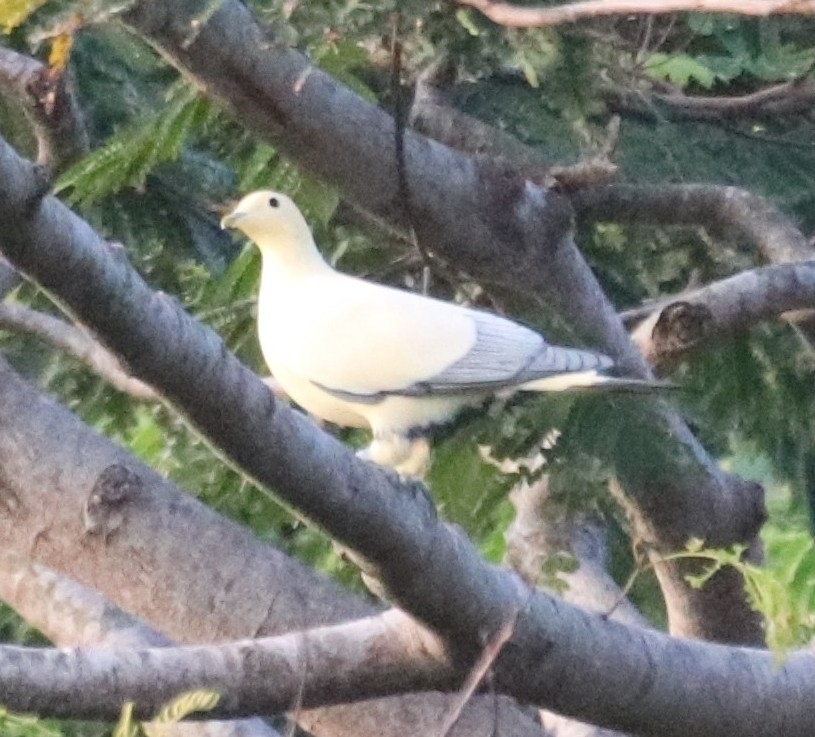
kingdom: Animalia
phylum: Chordata
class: Aves
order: Columbiformes
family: Columbidae
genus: Ducula
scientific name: Ducula luctuosa
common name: Silver-tipped imperial pigeon
